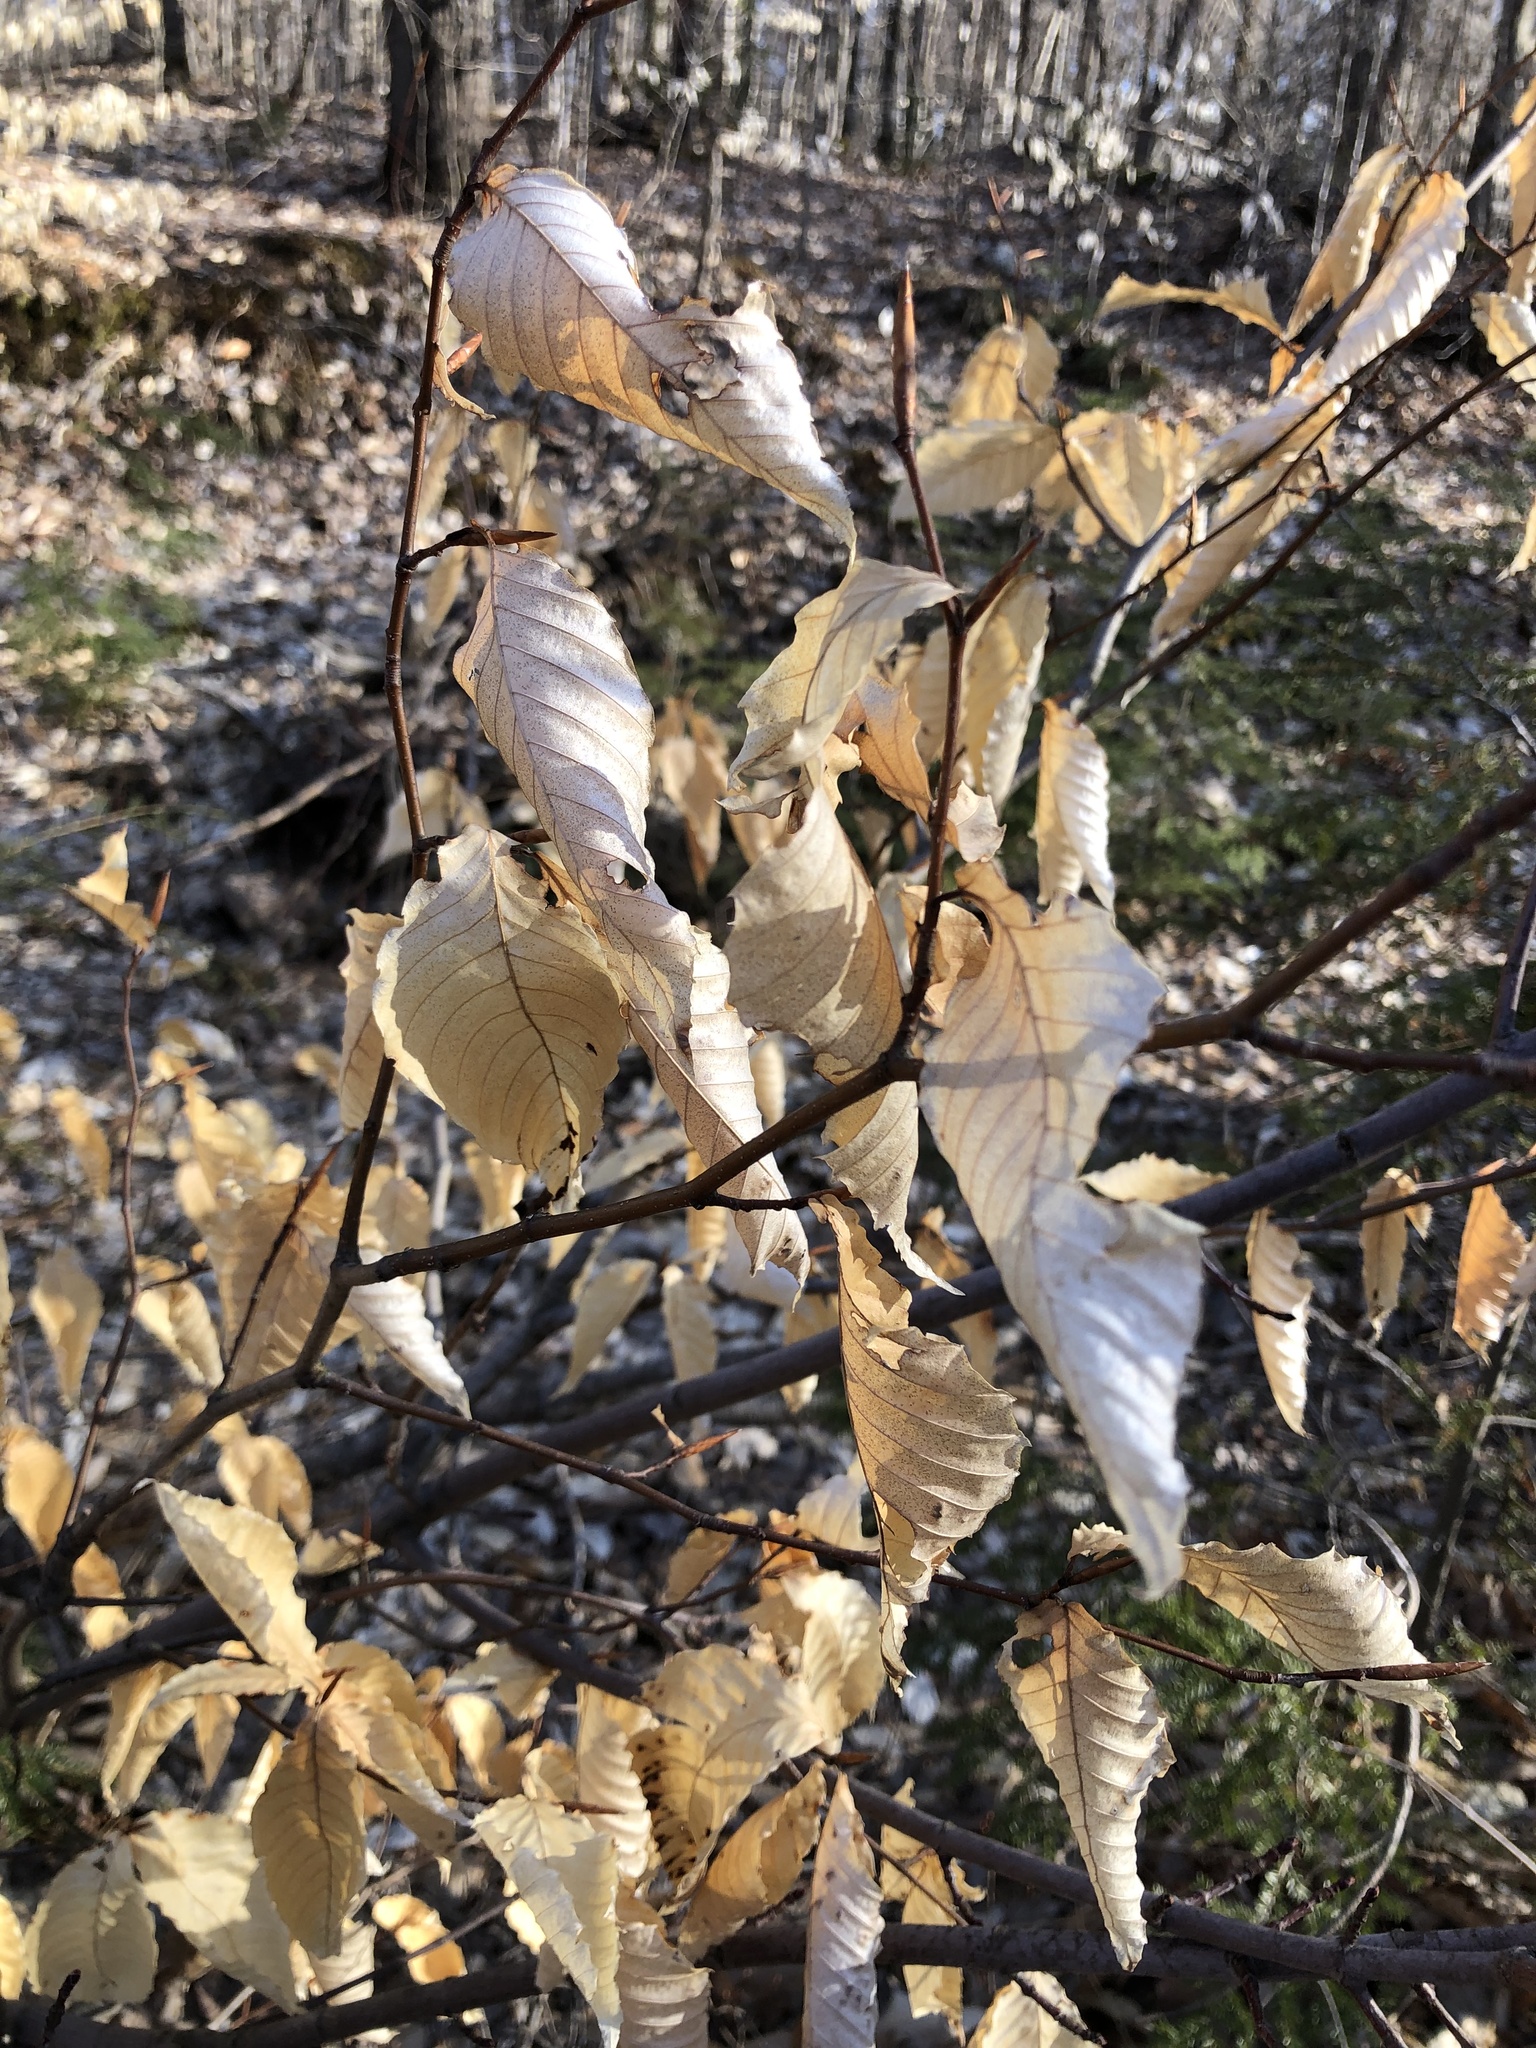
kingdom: Plantae
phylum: Tracheophyta
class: Magnoliopsida
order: Fagales
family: Fagaceae
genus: Fagus
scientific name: Fagus grandifolia
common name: American beech
